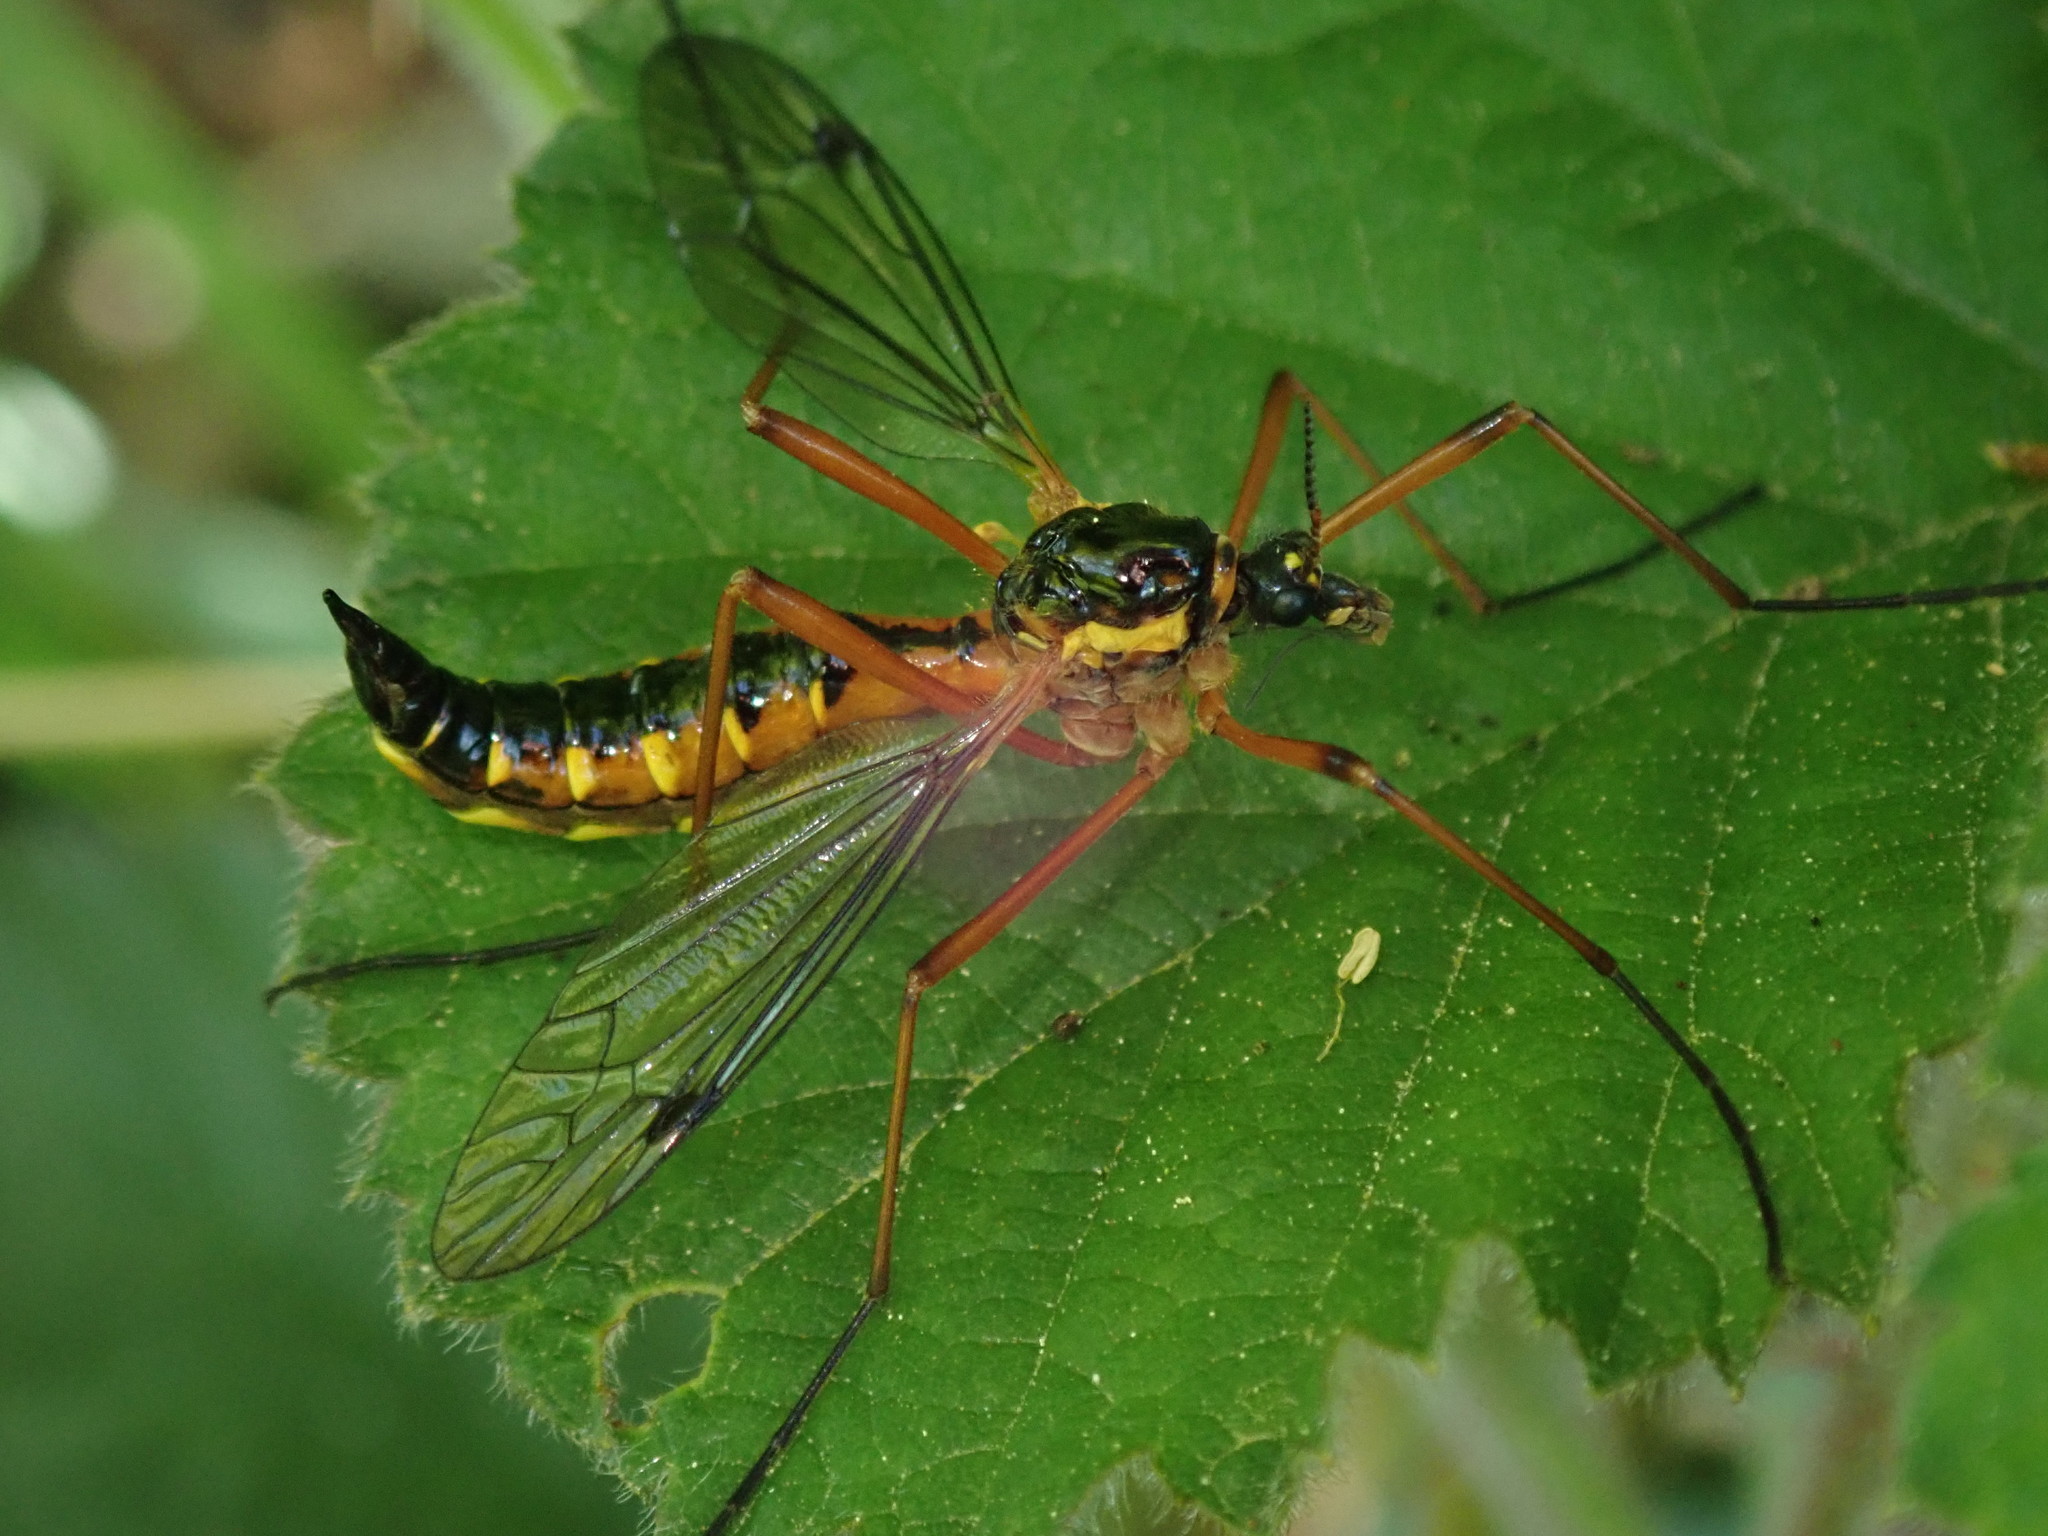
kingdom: Animalia
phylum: Arthropoda
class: Insecta
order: Diptera
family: Tipulidae
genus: Ctenophora
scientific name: Ctenophora pectinicornis
